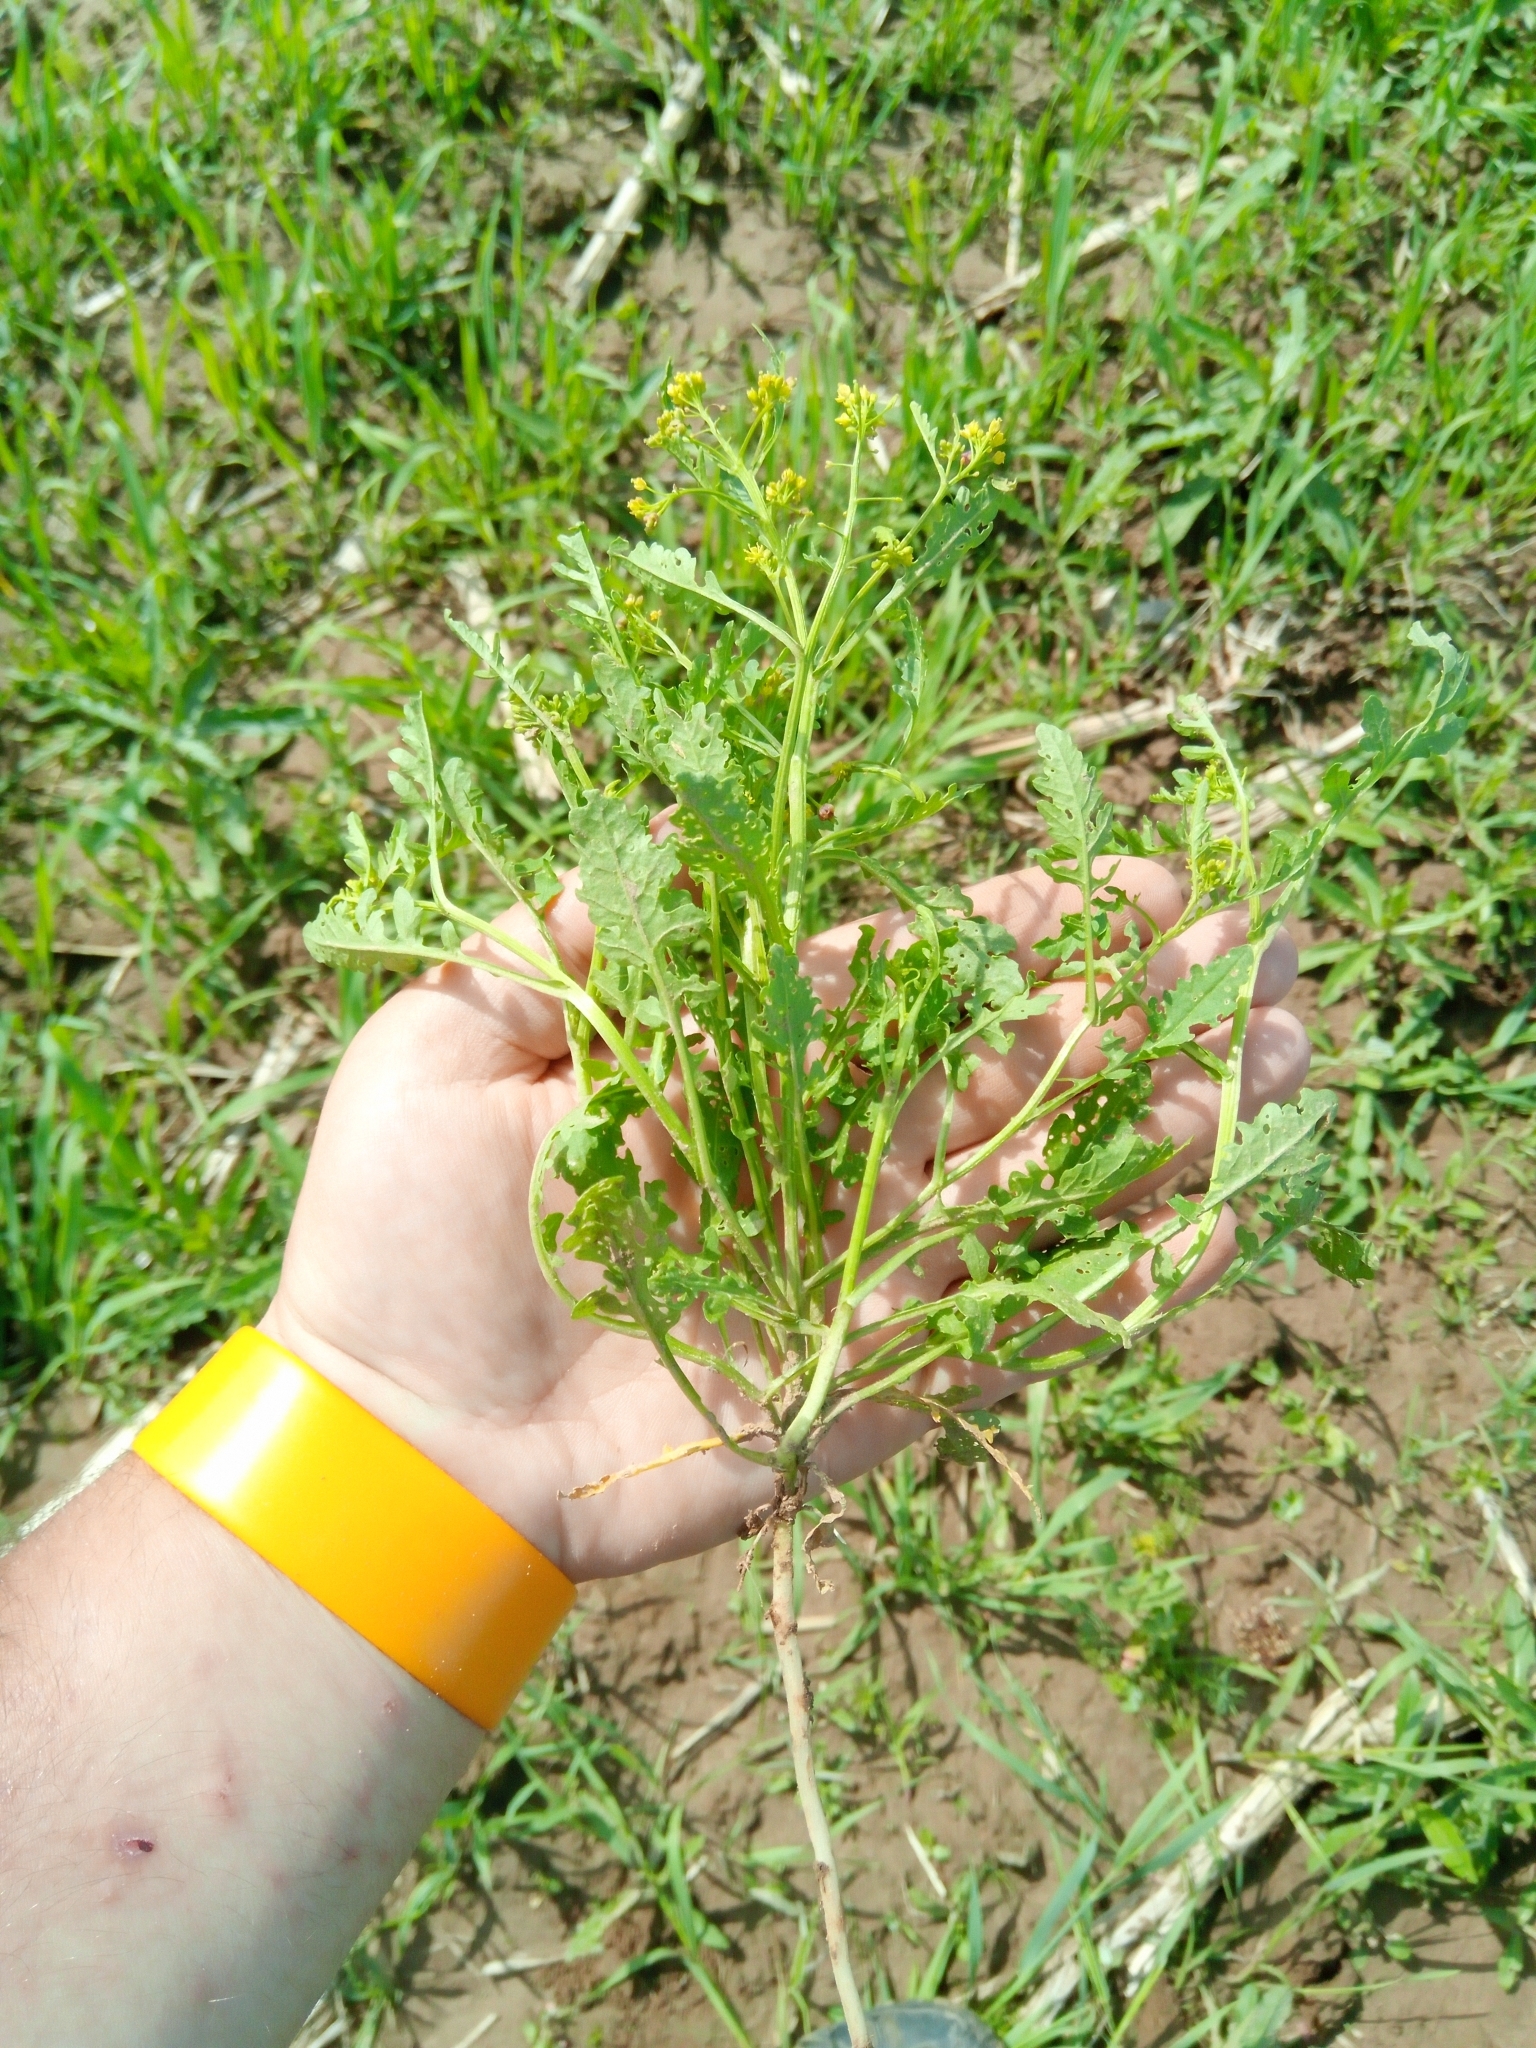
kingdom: Plantae
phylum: Tracheophyta
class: Magnoliopsida
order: Brassicales
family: Brassicaceae
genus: Rorippa
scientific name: Rorippa palustris
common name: Marsh yellow-cress
